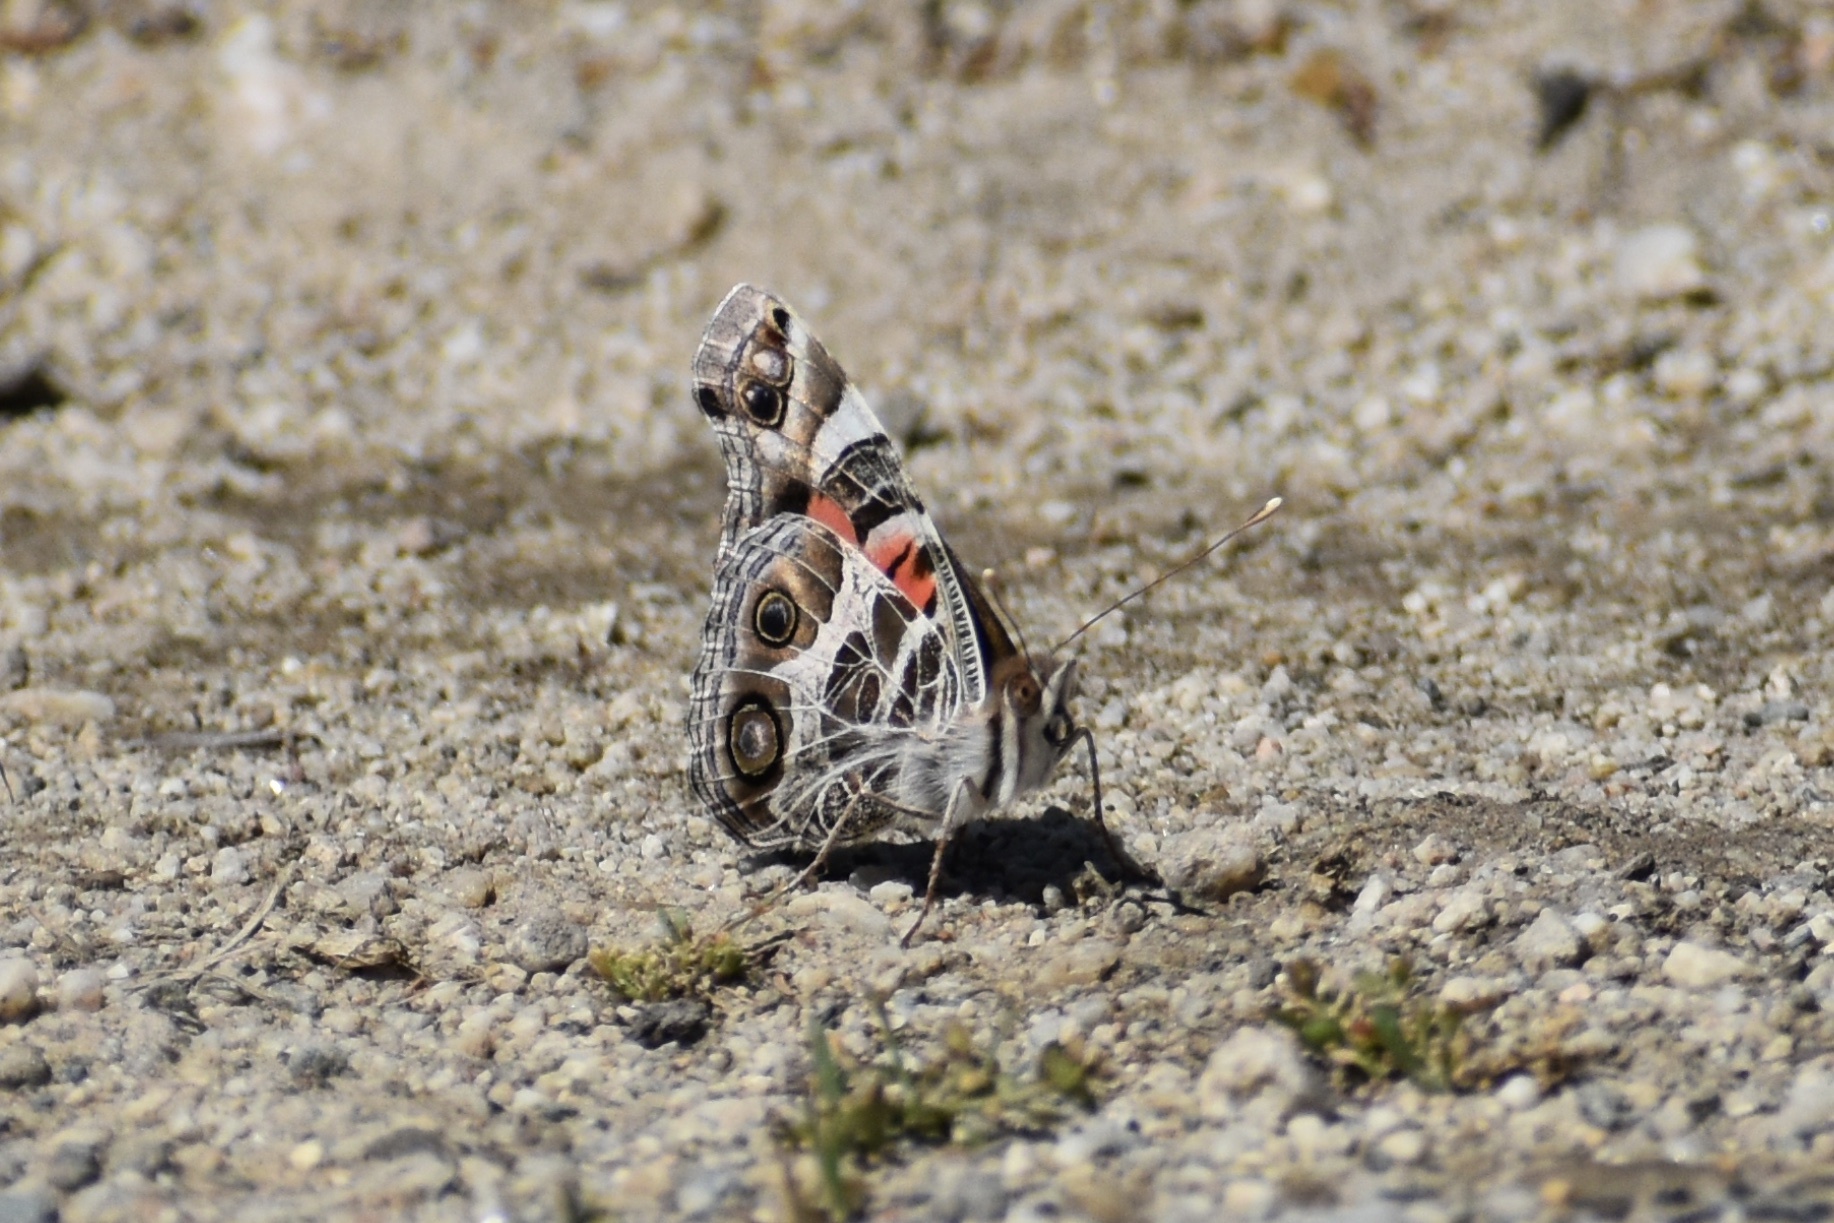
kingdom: Animalia
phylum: Arthropoda
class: Insecta
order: Lepidoptera
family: Nymphalidae
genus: Vanessa
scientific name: Vanessa virginiensis
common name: American lady
